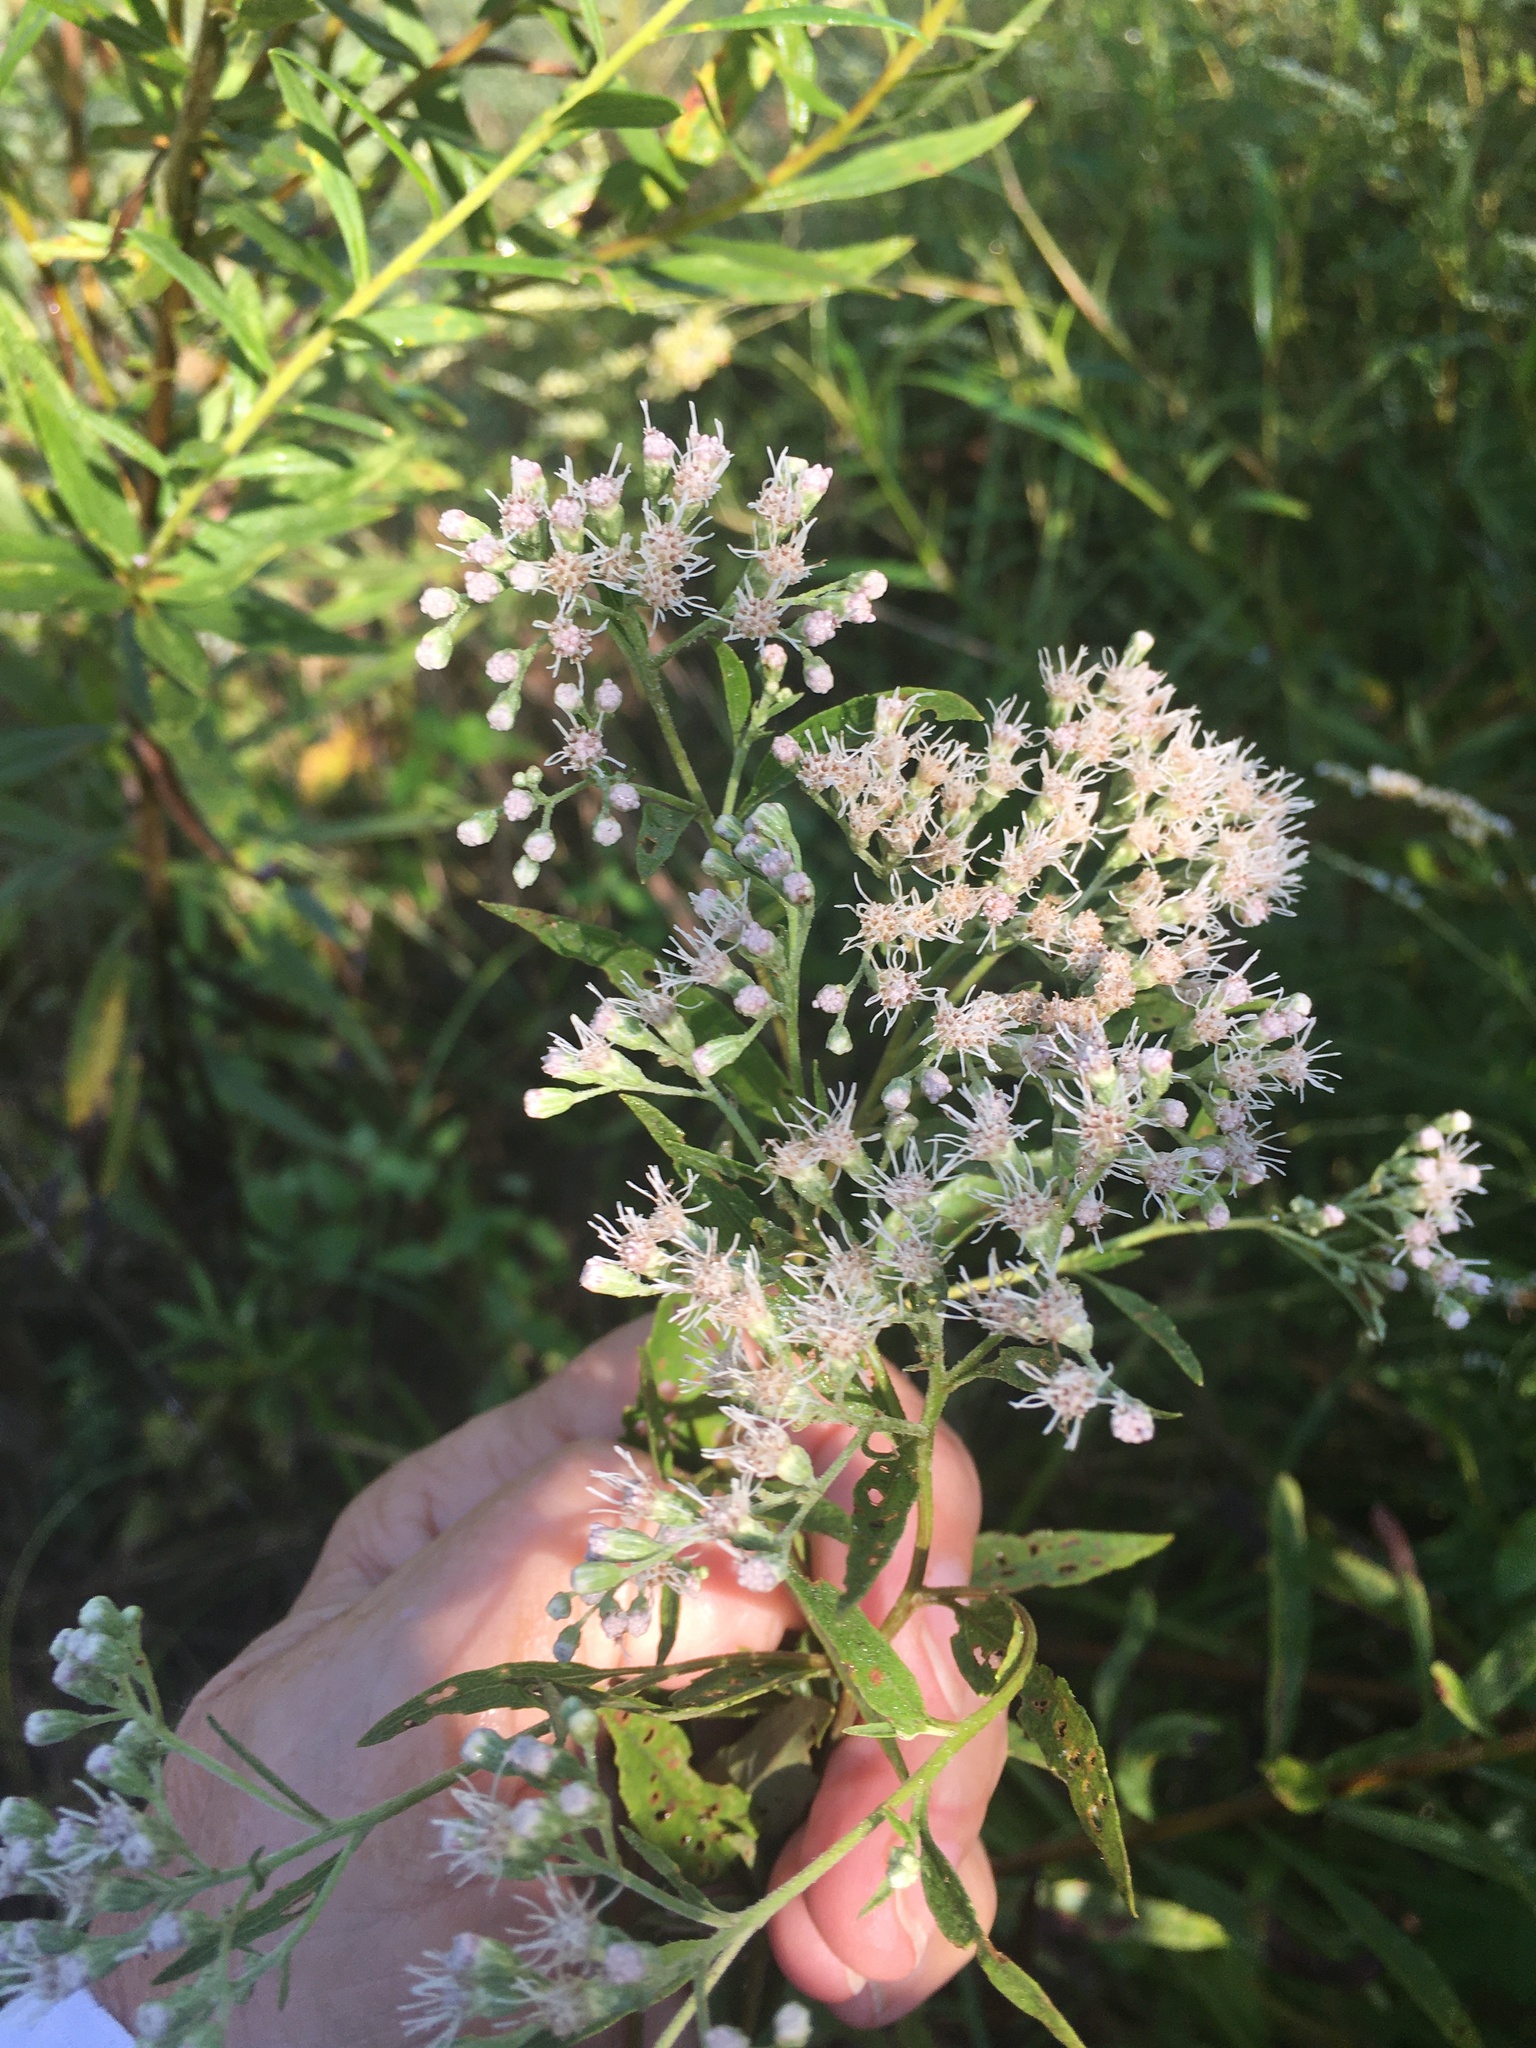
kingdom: Plantae
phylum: Tracheophyta
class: Magnoliopsida
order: Asterales
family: Asteraceae
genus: Eupatorium
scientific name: Eupatorium serotinum
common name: Late boneset
